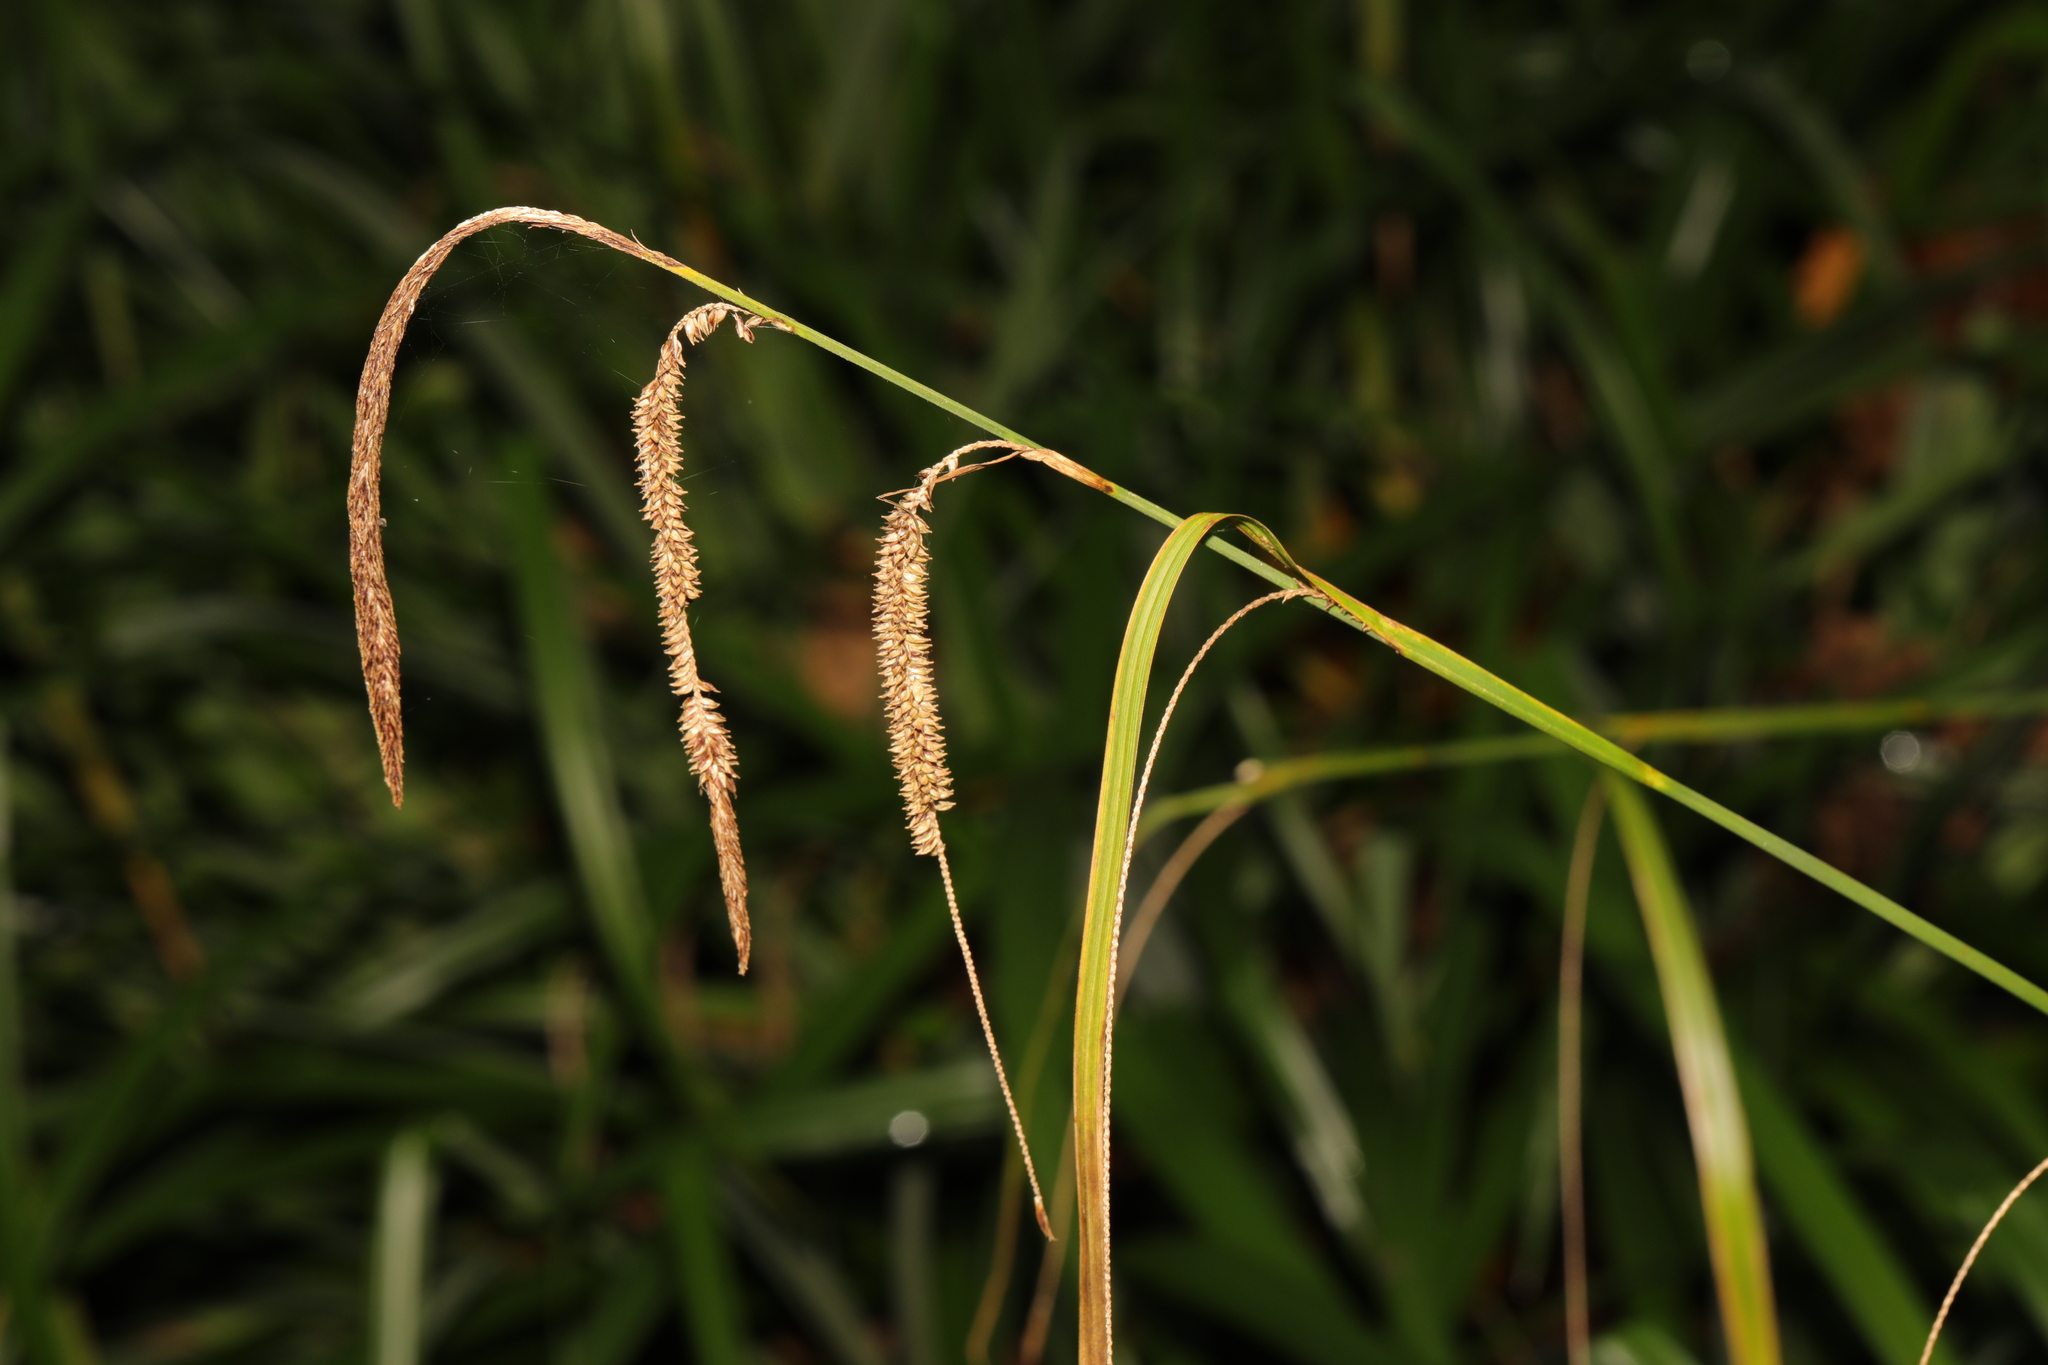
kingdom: Plantae
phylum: Tracheophyta
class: Liliopsida
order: Poales
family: Cyperaceae
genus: Carex
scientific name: Carex pendula
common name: Pendulous sedge
